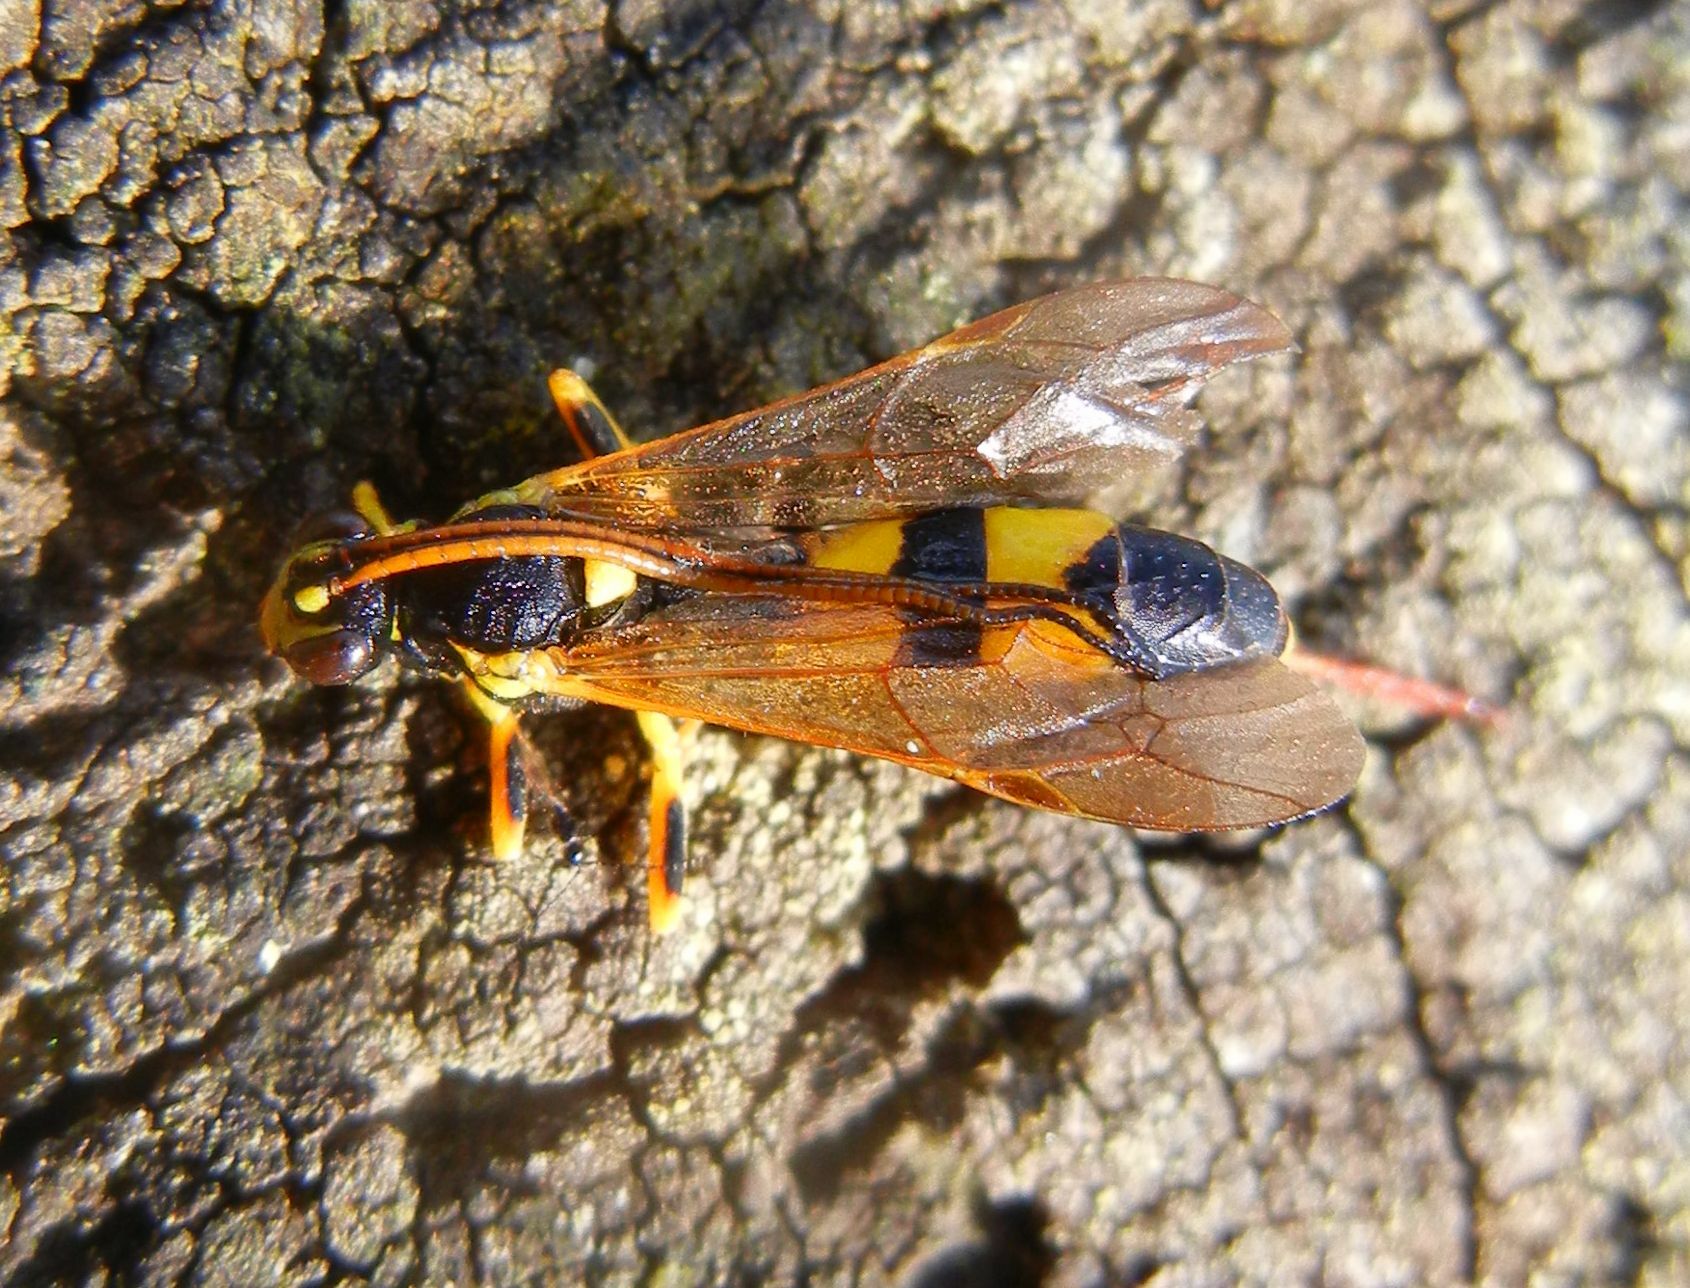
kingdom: Animalia
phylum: Arthropoda
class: Insecta
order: Hymenoptera
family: Ichneumonidae
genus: Amblyteles
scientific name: Amblyteles armatorius
